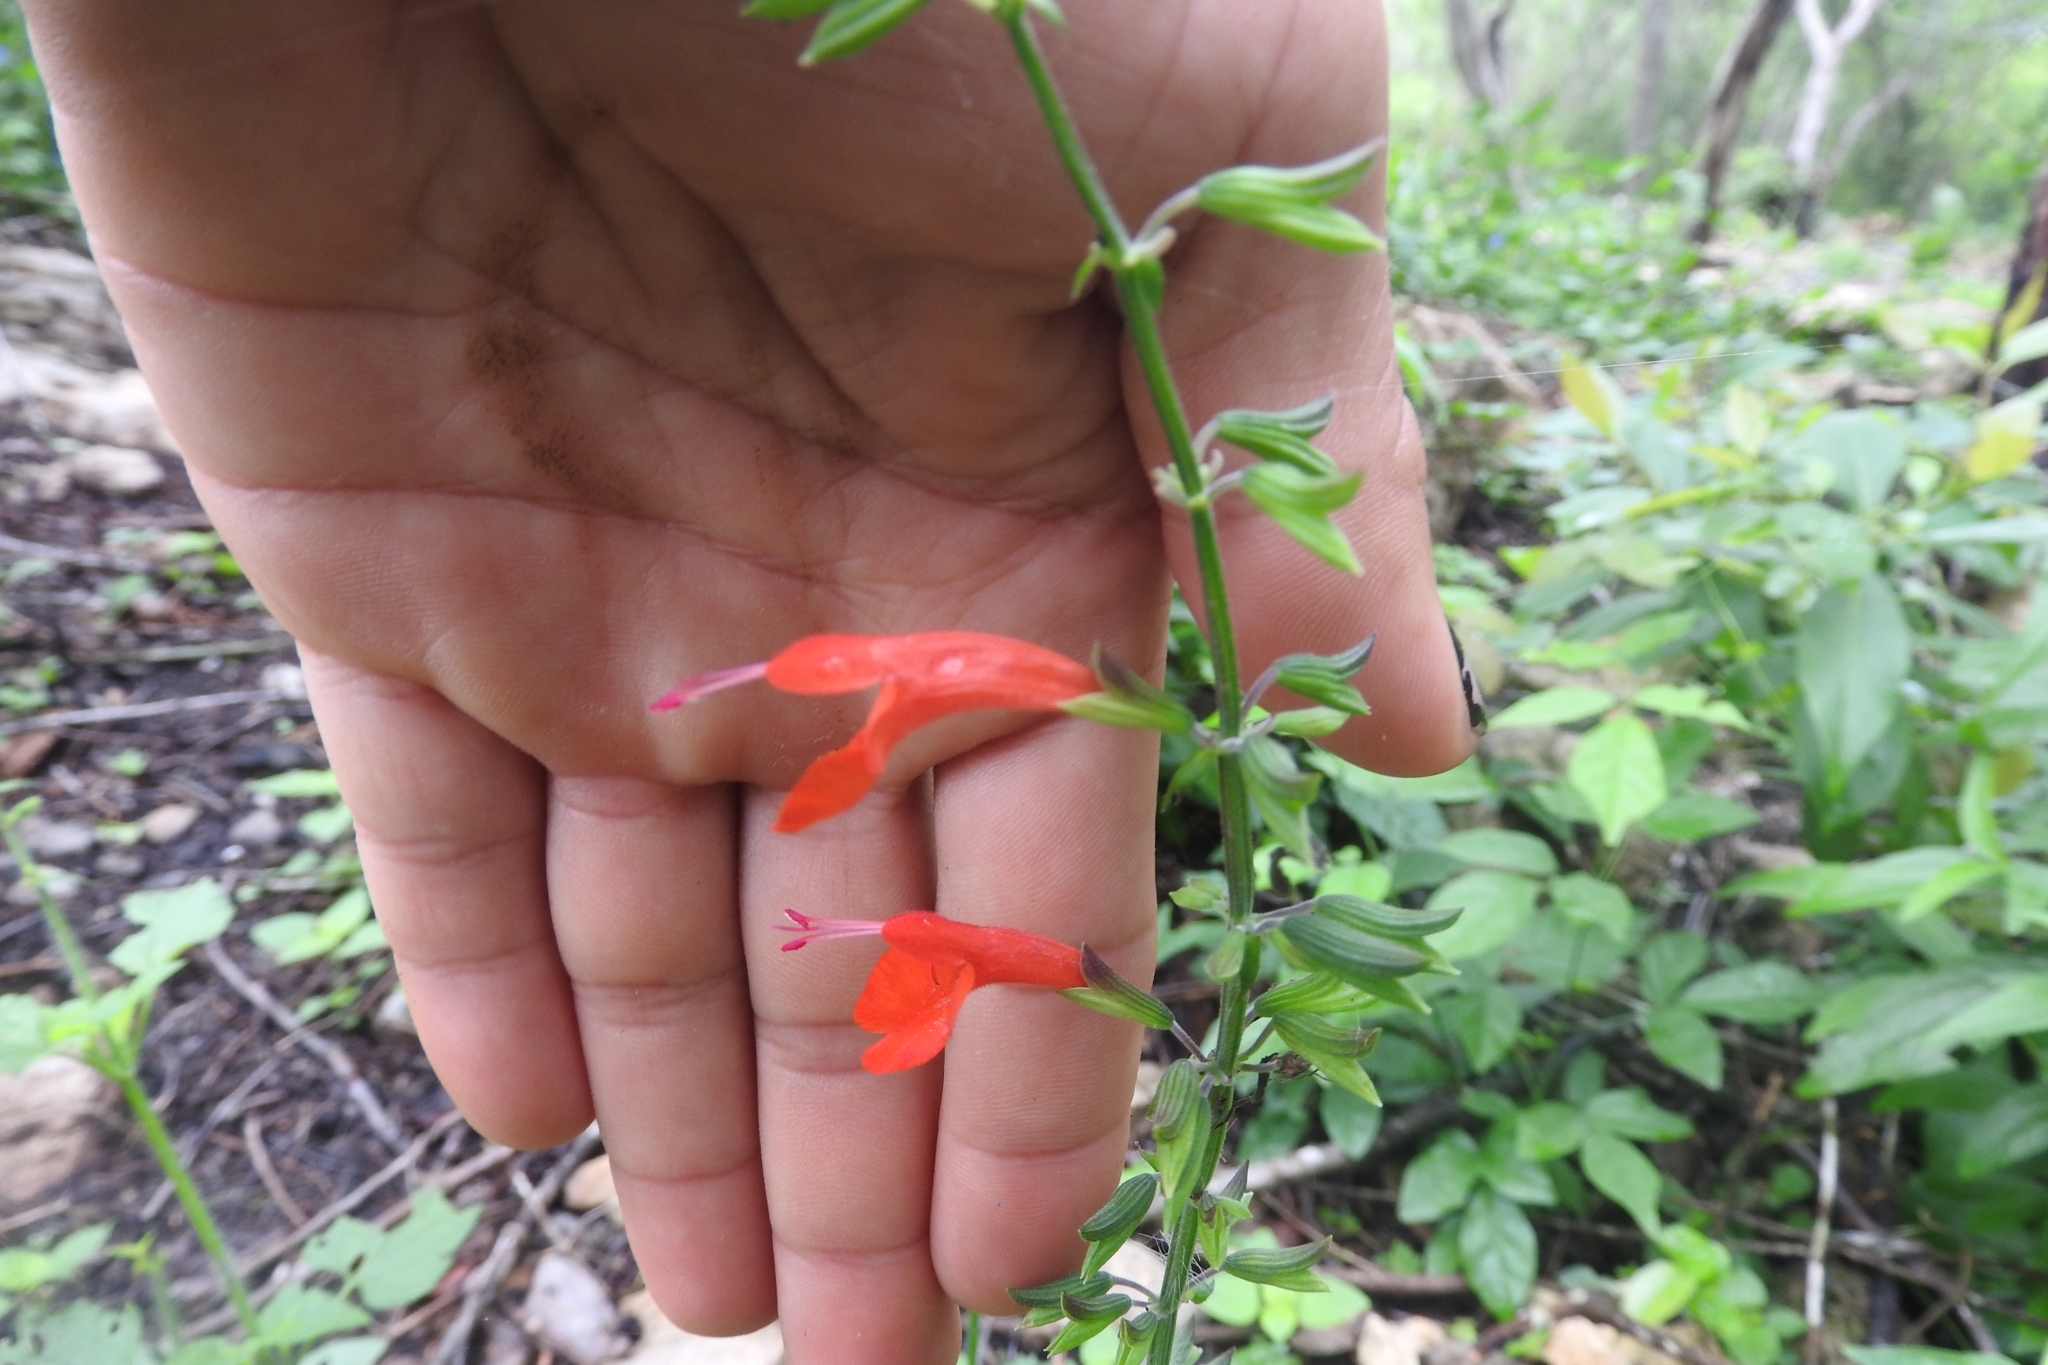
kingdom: Plantae
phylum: Tracheophyta
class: Magnoliopsida
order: Lamiales
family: Lamiaceae
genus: Salvia
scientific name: Salvia coccinea
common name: Blood sage
